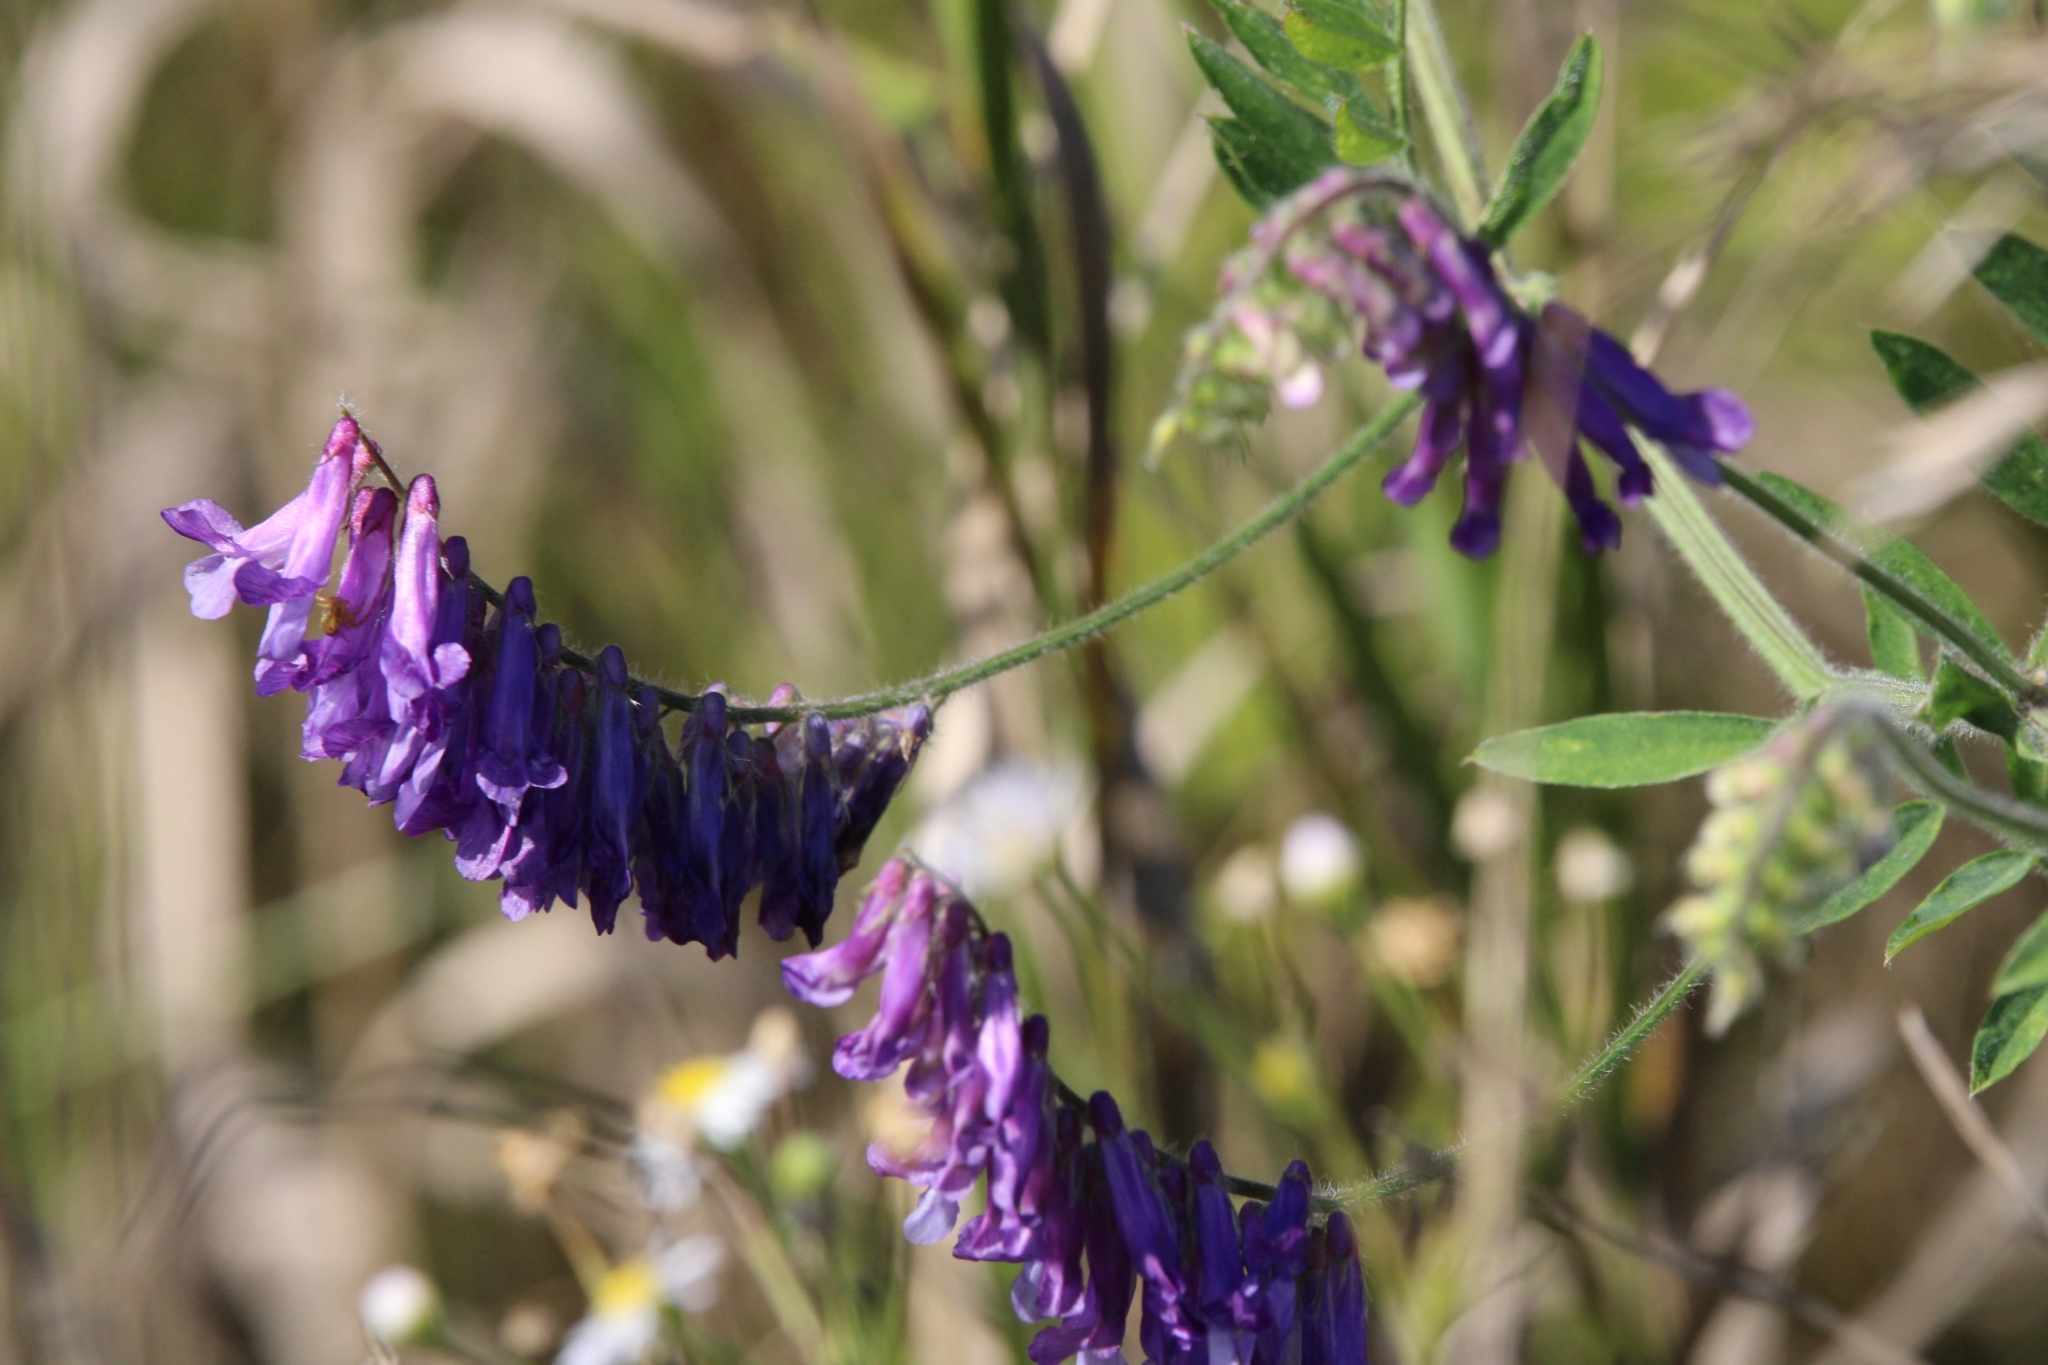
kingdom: Plantae
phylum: Tracheophyta
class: Magnoliopsida
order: Fabales
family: Fabaceae
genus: Vicia
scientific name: Vicia villosa
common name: Fodder vetch
